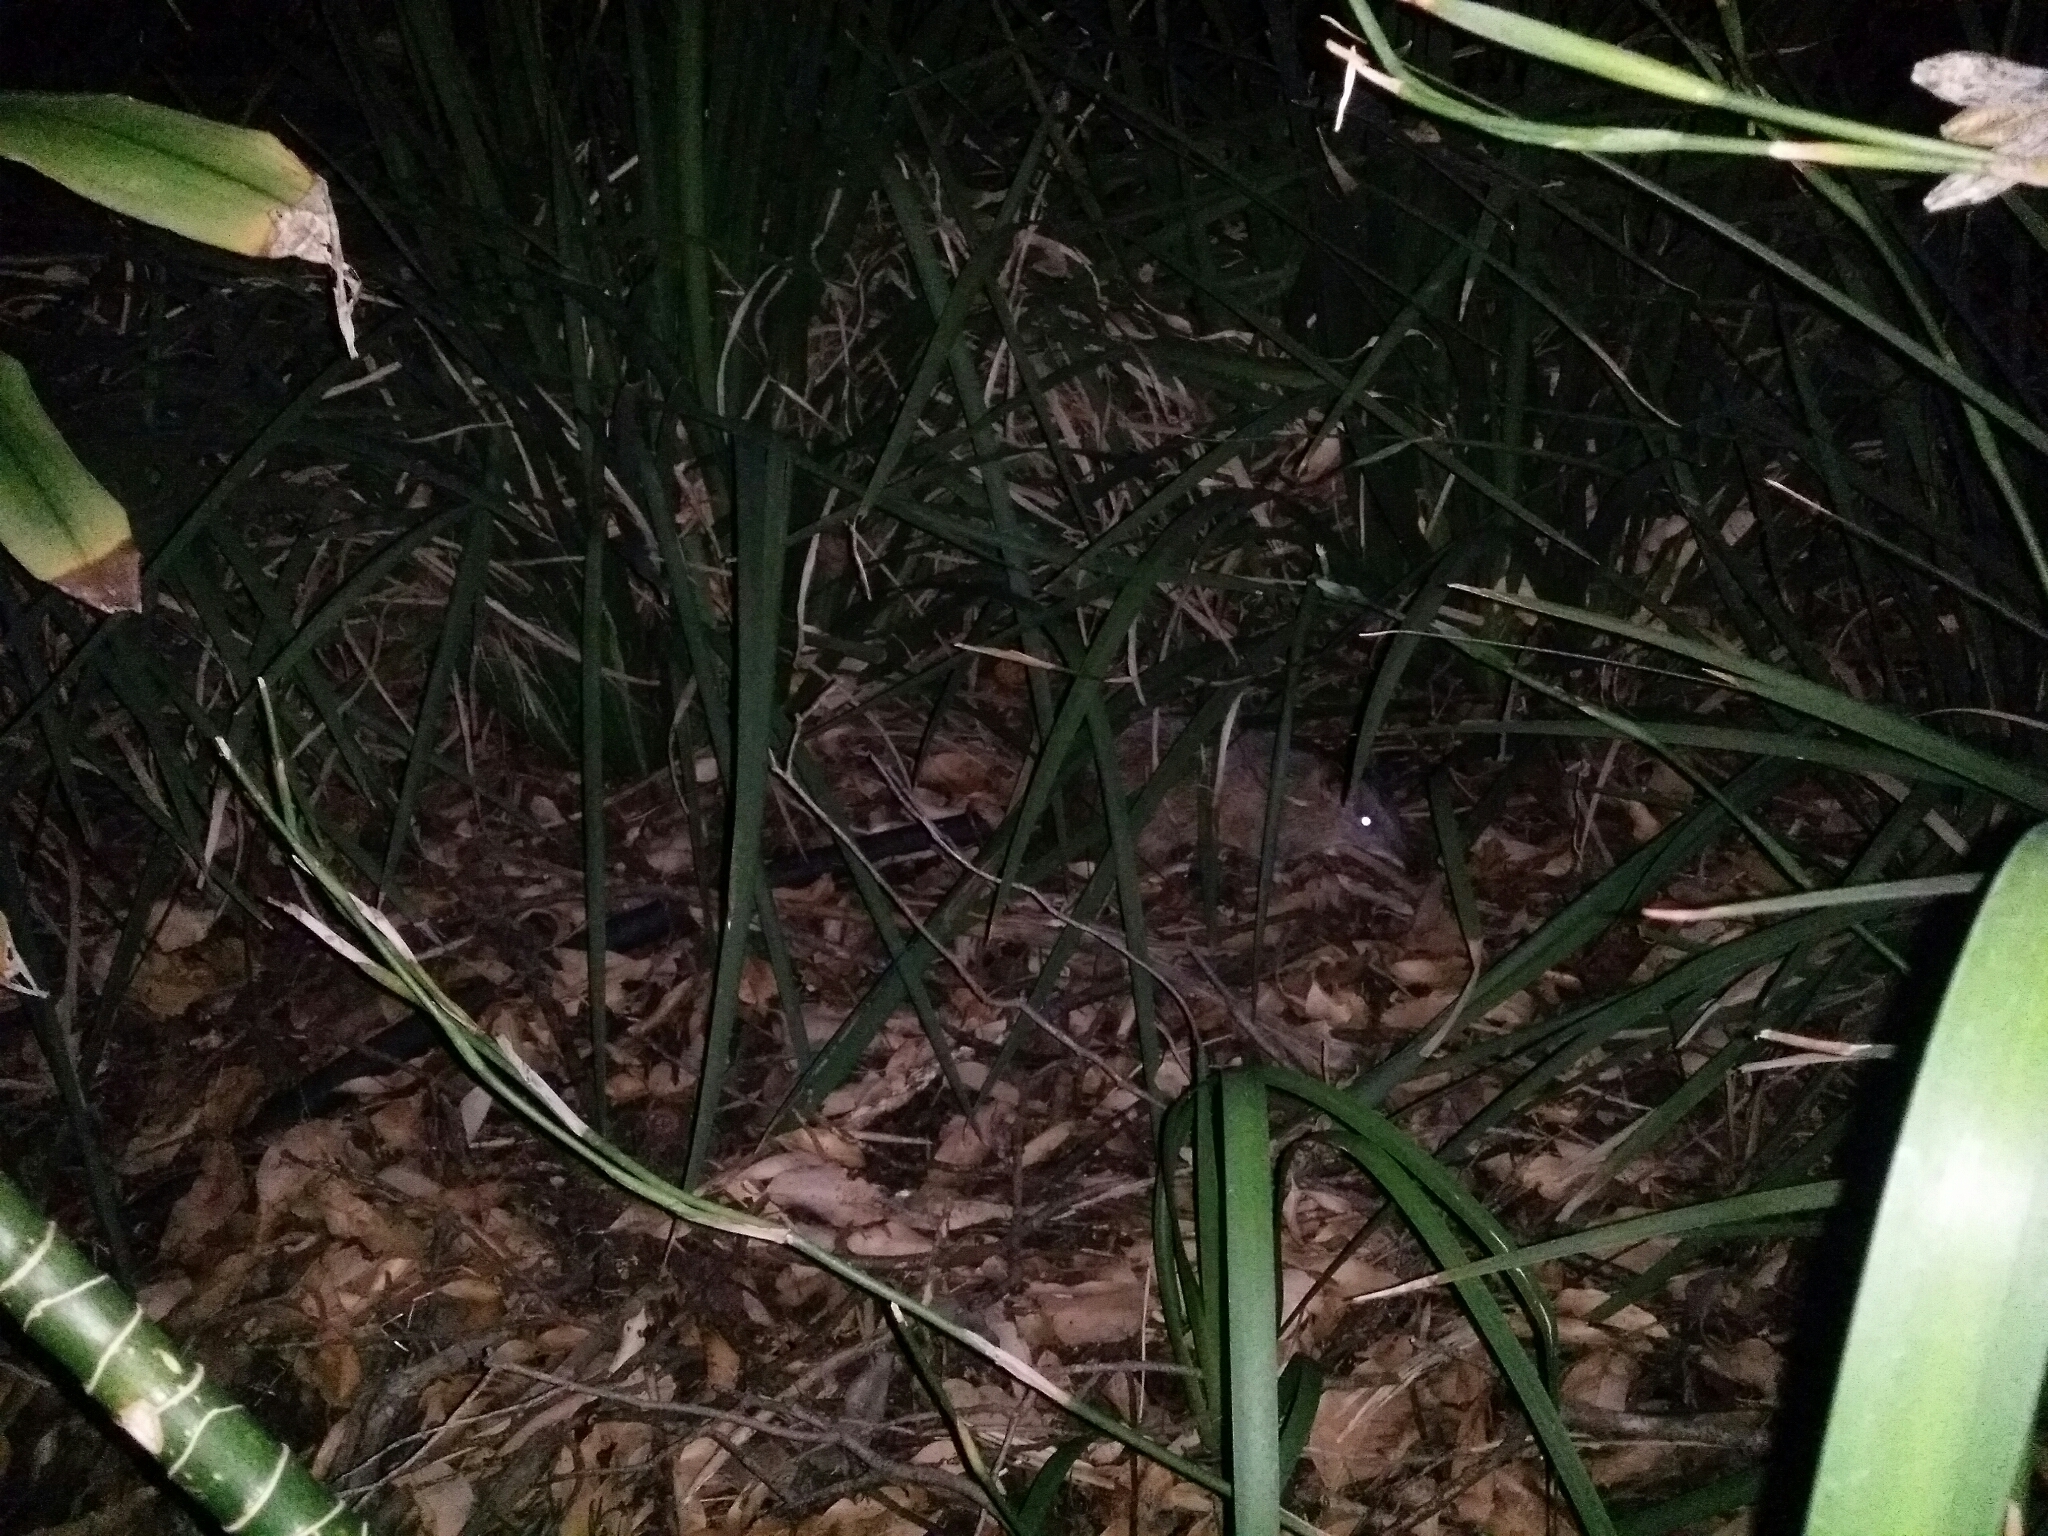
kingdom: Animalia
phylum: Chordata
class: Mammalia
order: Peramelemorphia
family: Peramelidae
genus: Isoodon
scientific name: Isoodon fusciventer
